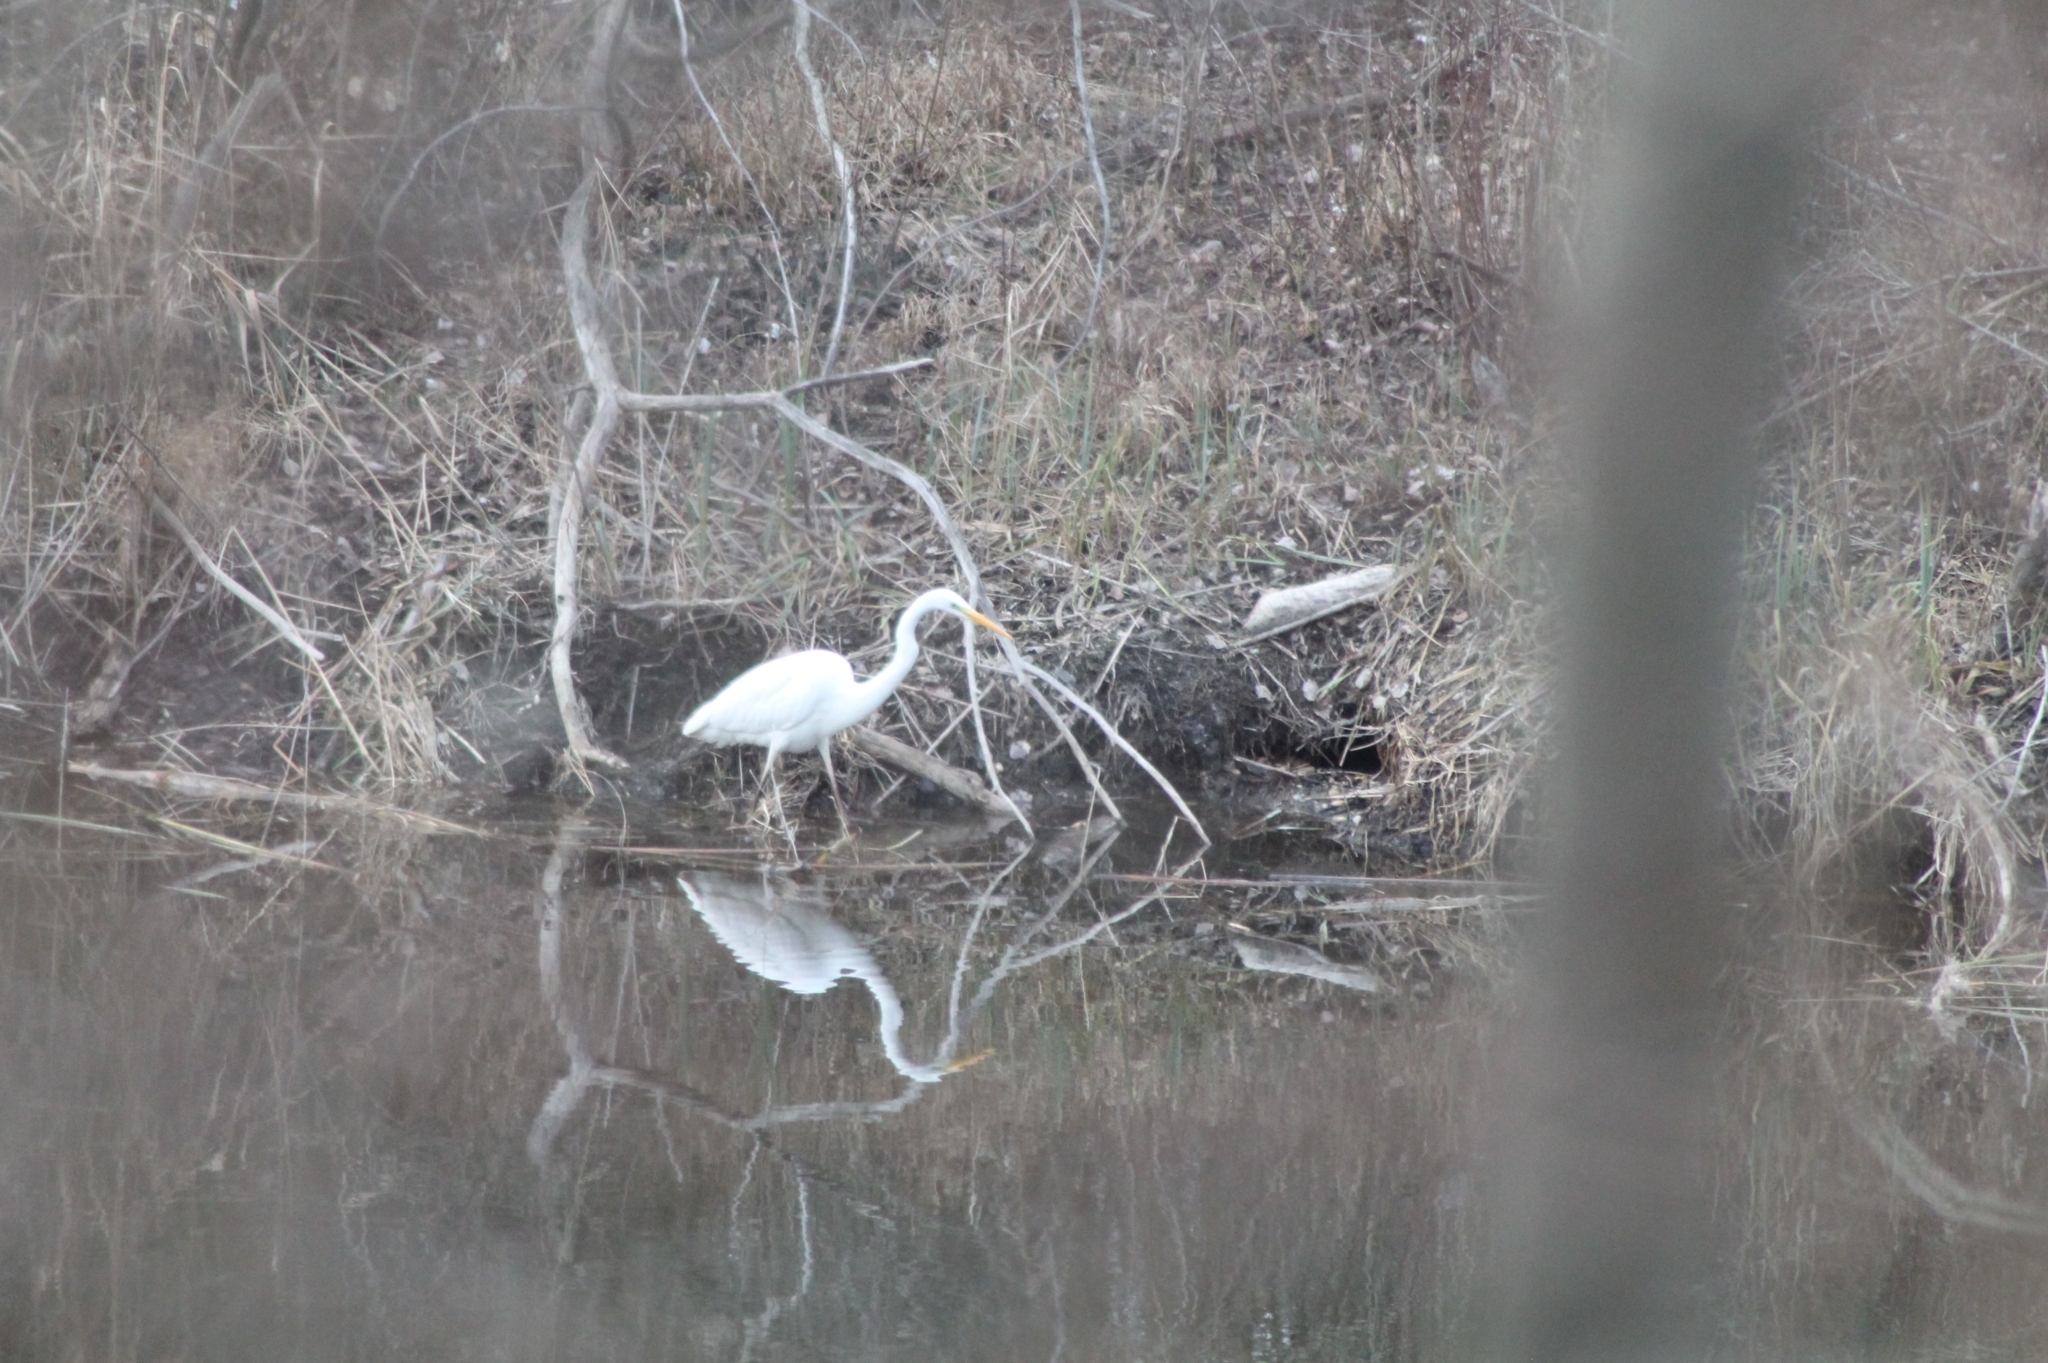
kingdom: Animalia
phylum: Chordata
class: Aves
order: Pelecaniformes
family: Ardeidae
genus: Ardea
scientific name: Ardea alba
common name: Great egret
